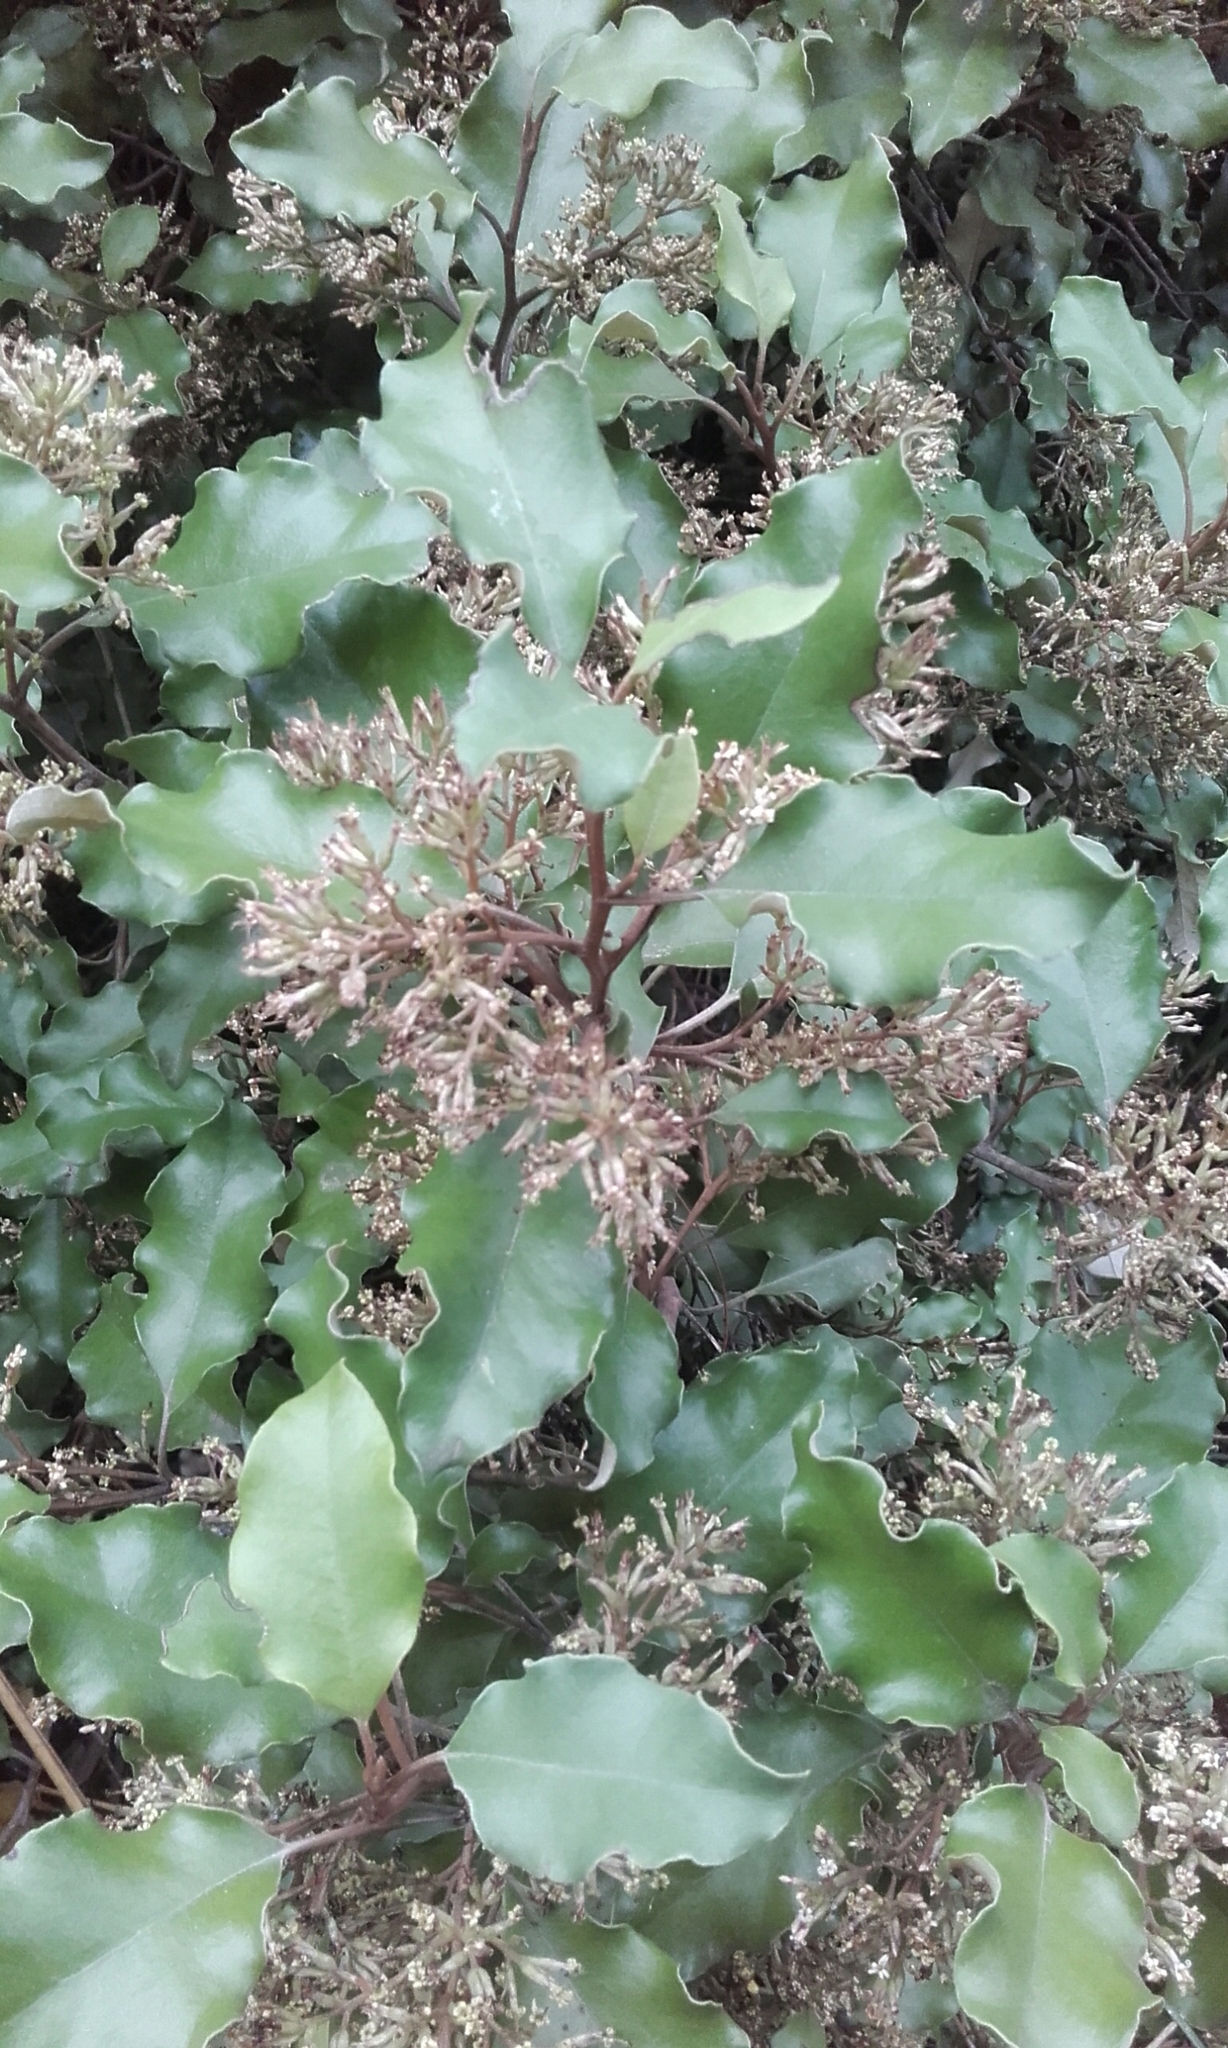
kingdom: Plantae
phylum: Tracheophyta
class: Magnoliopsida
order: Asterales
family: Asteraceae
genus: Olearia
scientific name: Olearia paniculata
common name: Akiraho
